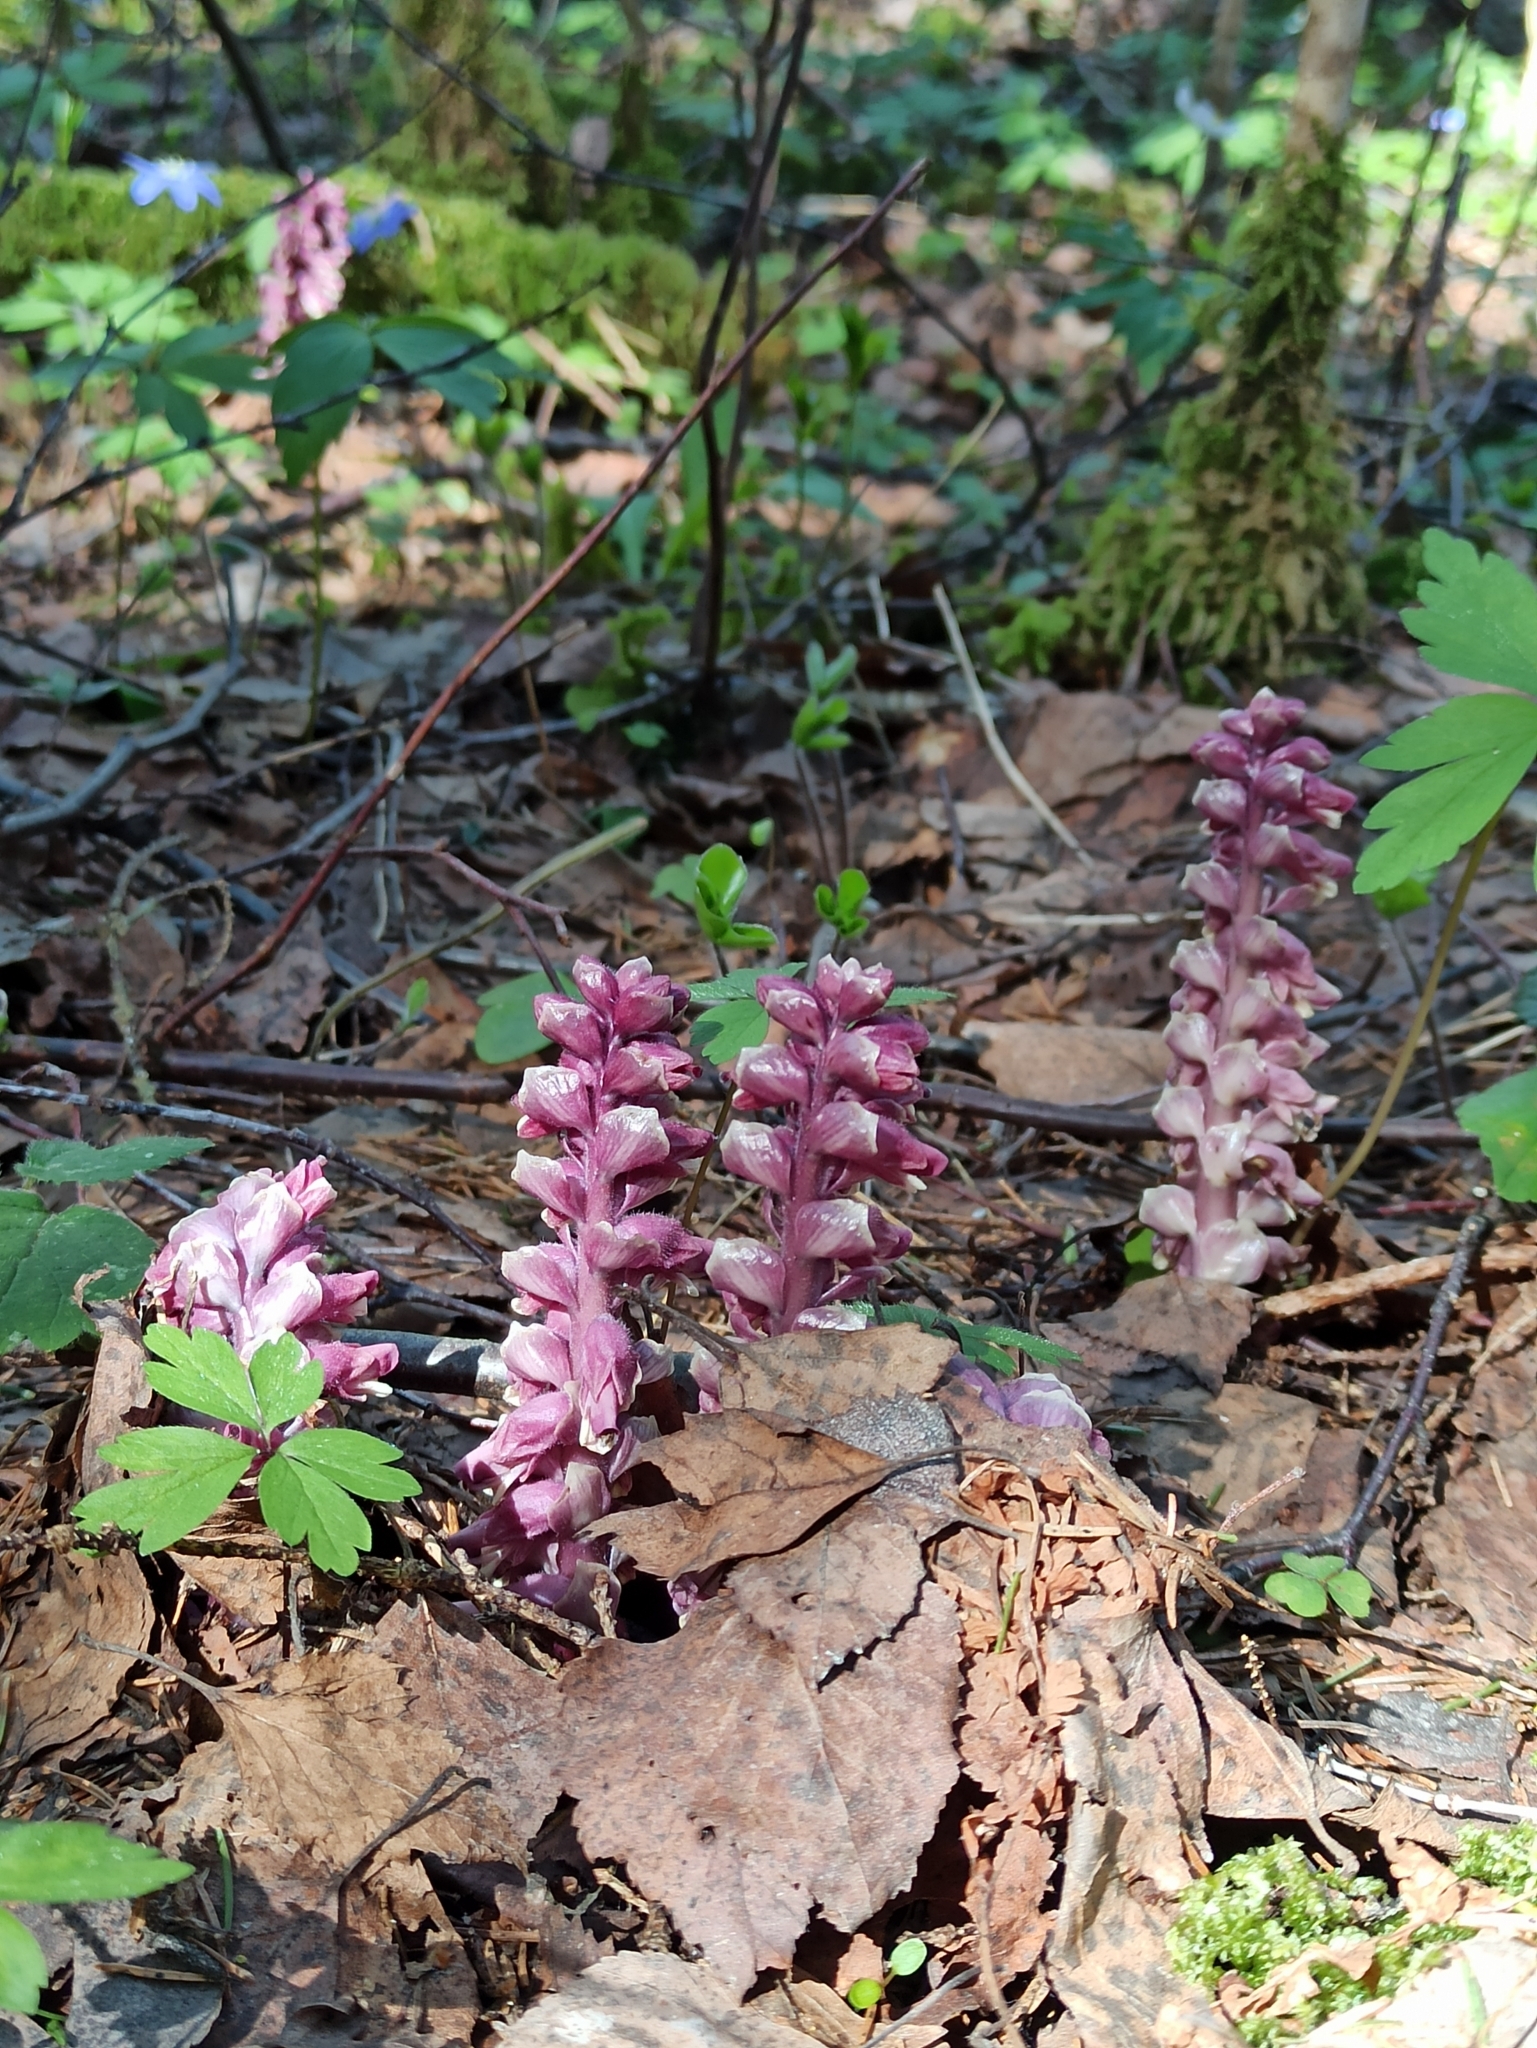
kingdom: Plantae
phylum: Tracheophyta
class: Magnoliopsida
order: Lamiales
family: Orobanchaceae
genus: Lathraea
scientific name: Lathraea squamaria
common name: Toothwort
